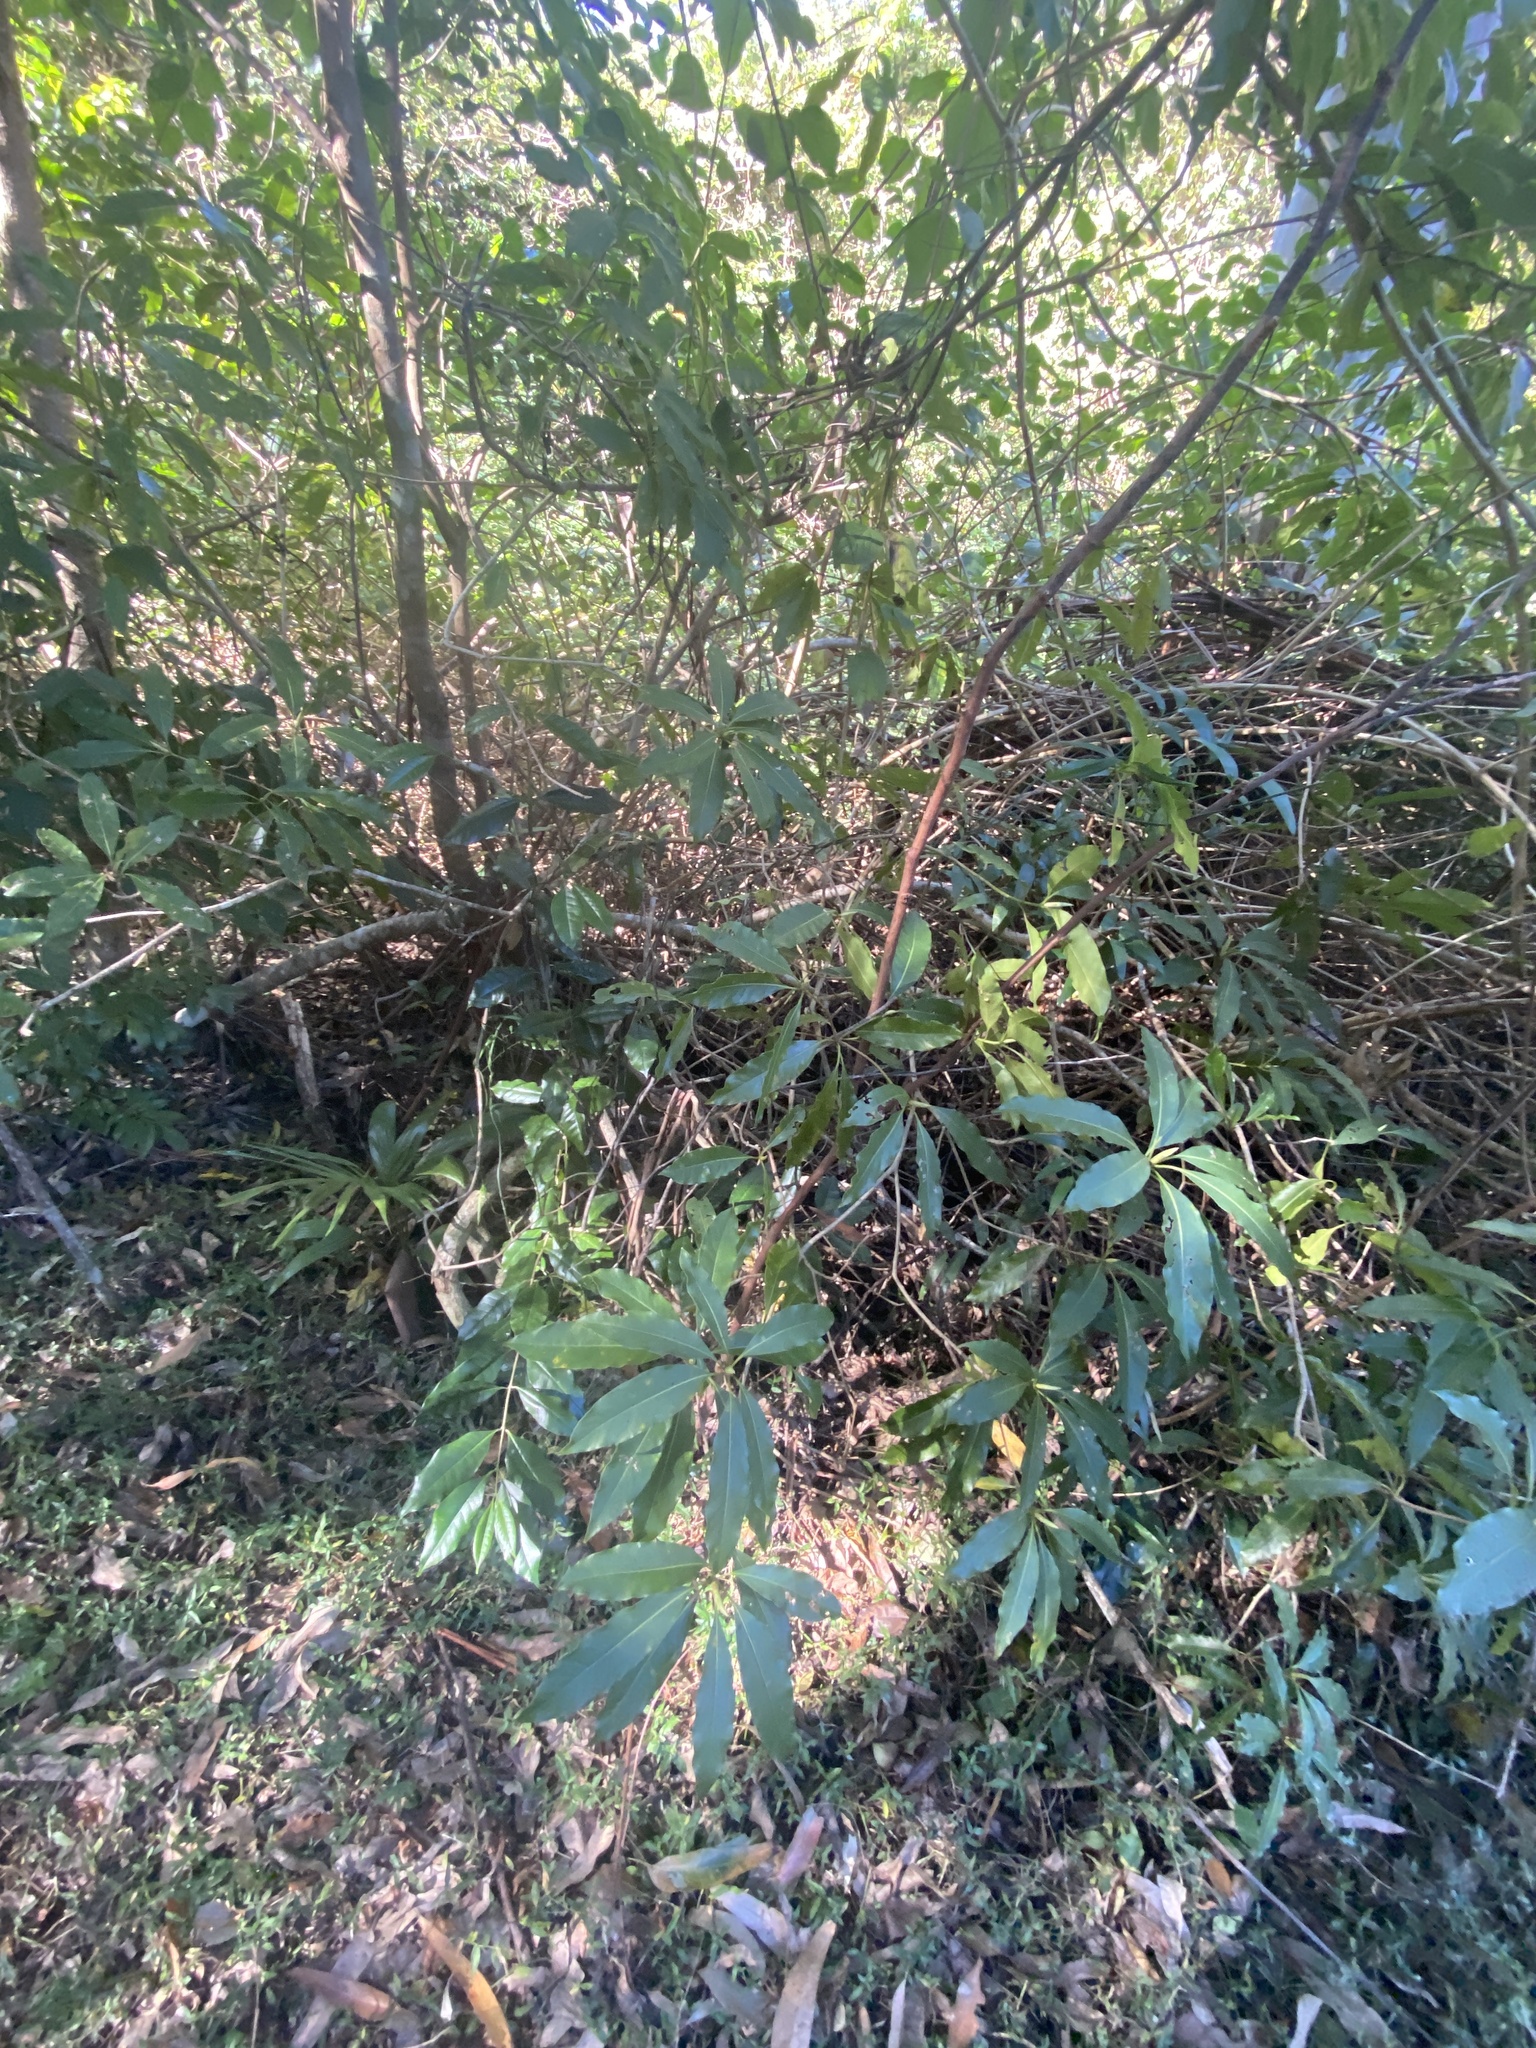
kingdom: Plantae
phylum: Tracheophyta
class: Magnoliopsida
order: Apiales
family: Pittosporaceae
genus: Pittosporum
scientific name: Pittosporum undulatum
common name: Australian cheesewood
